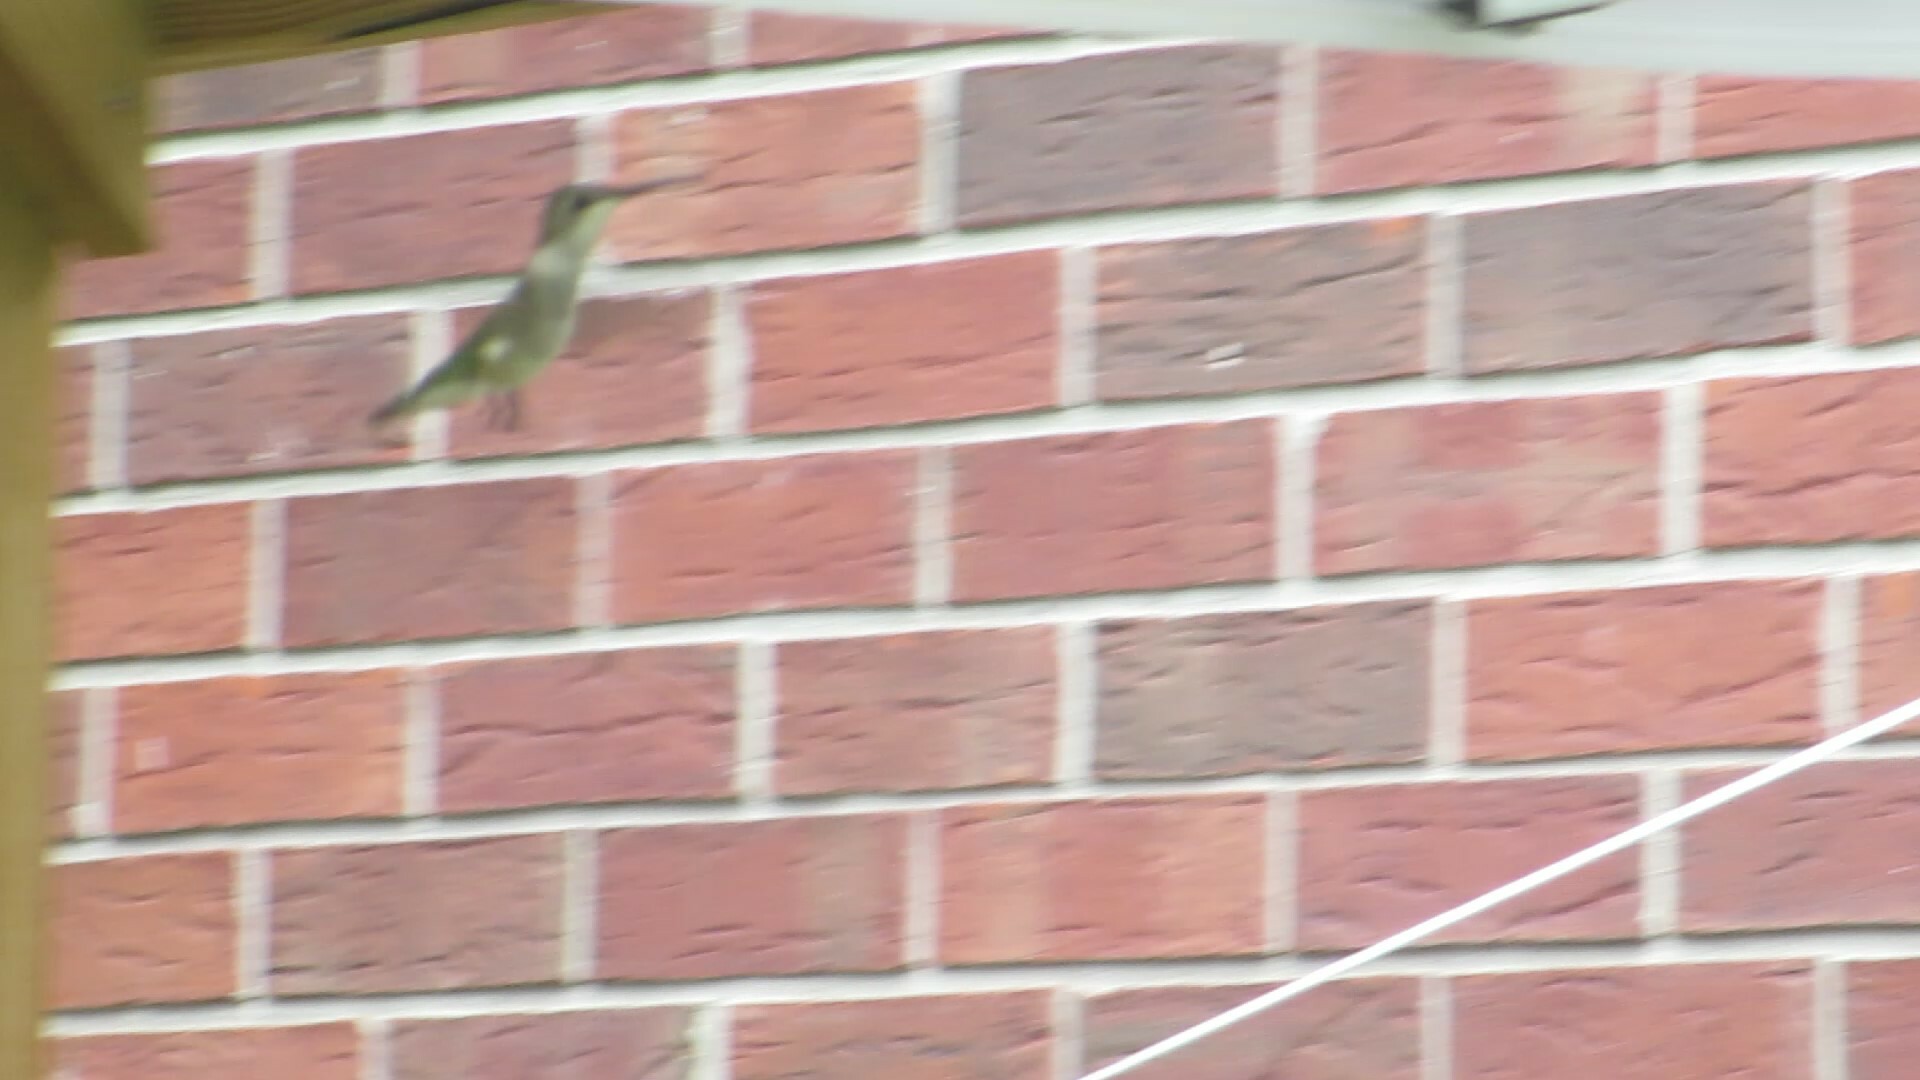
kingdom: Animalia
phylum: Chordata
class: Aves
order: Apodiformes
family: Trochilidae
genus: Archilochus
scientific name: Archilochus colubris
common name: Ruby-throated hummingbird
